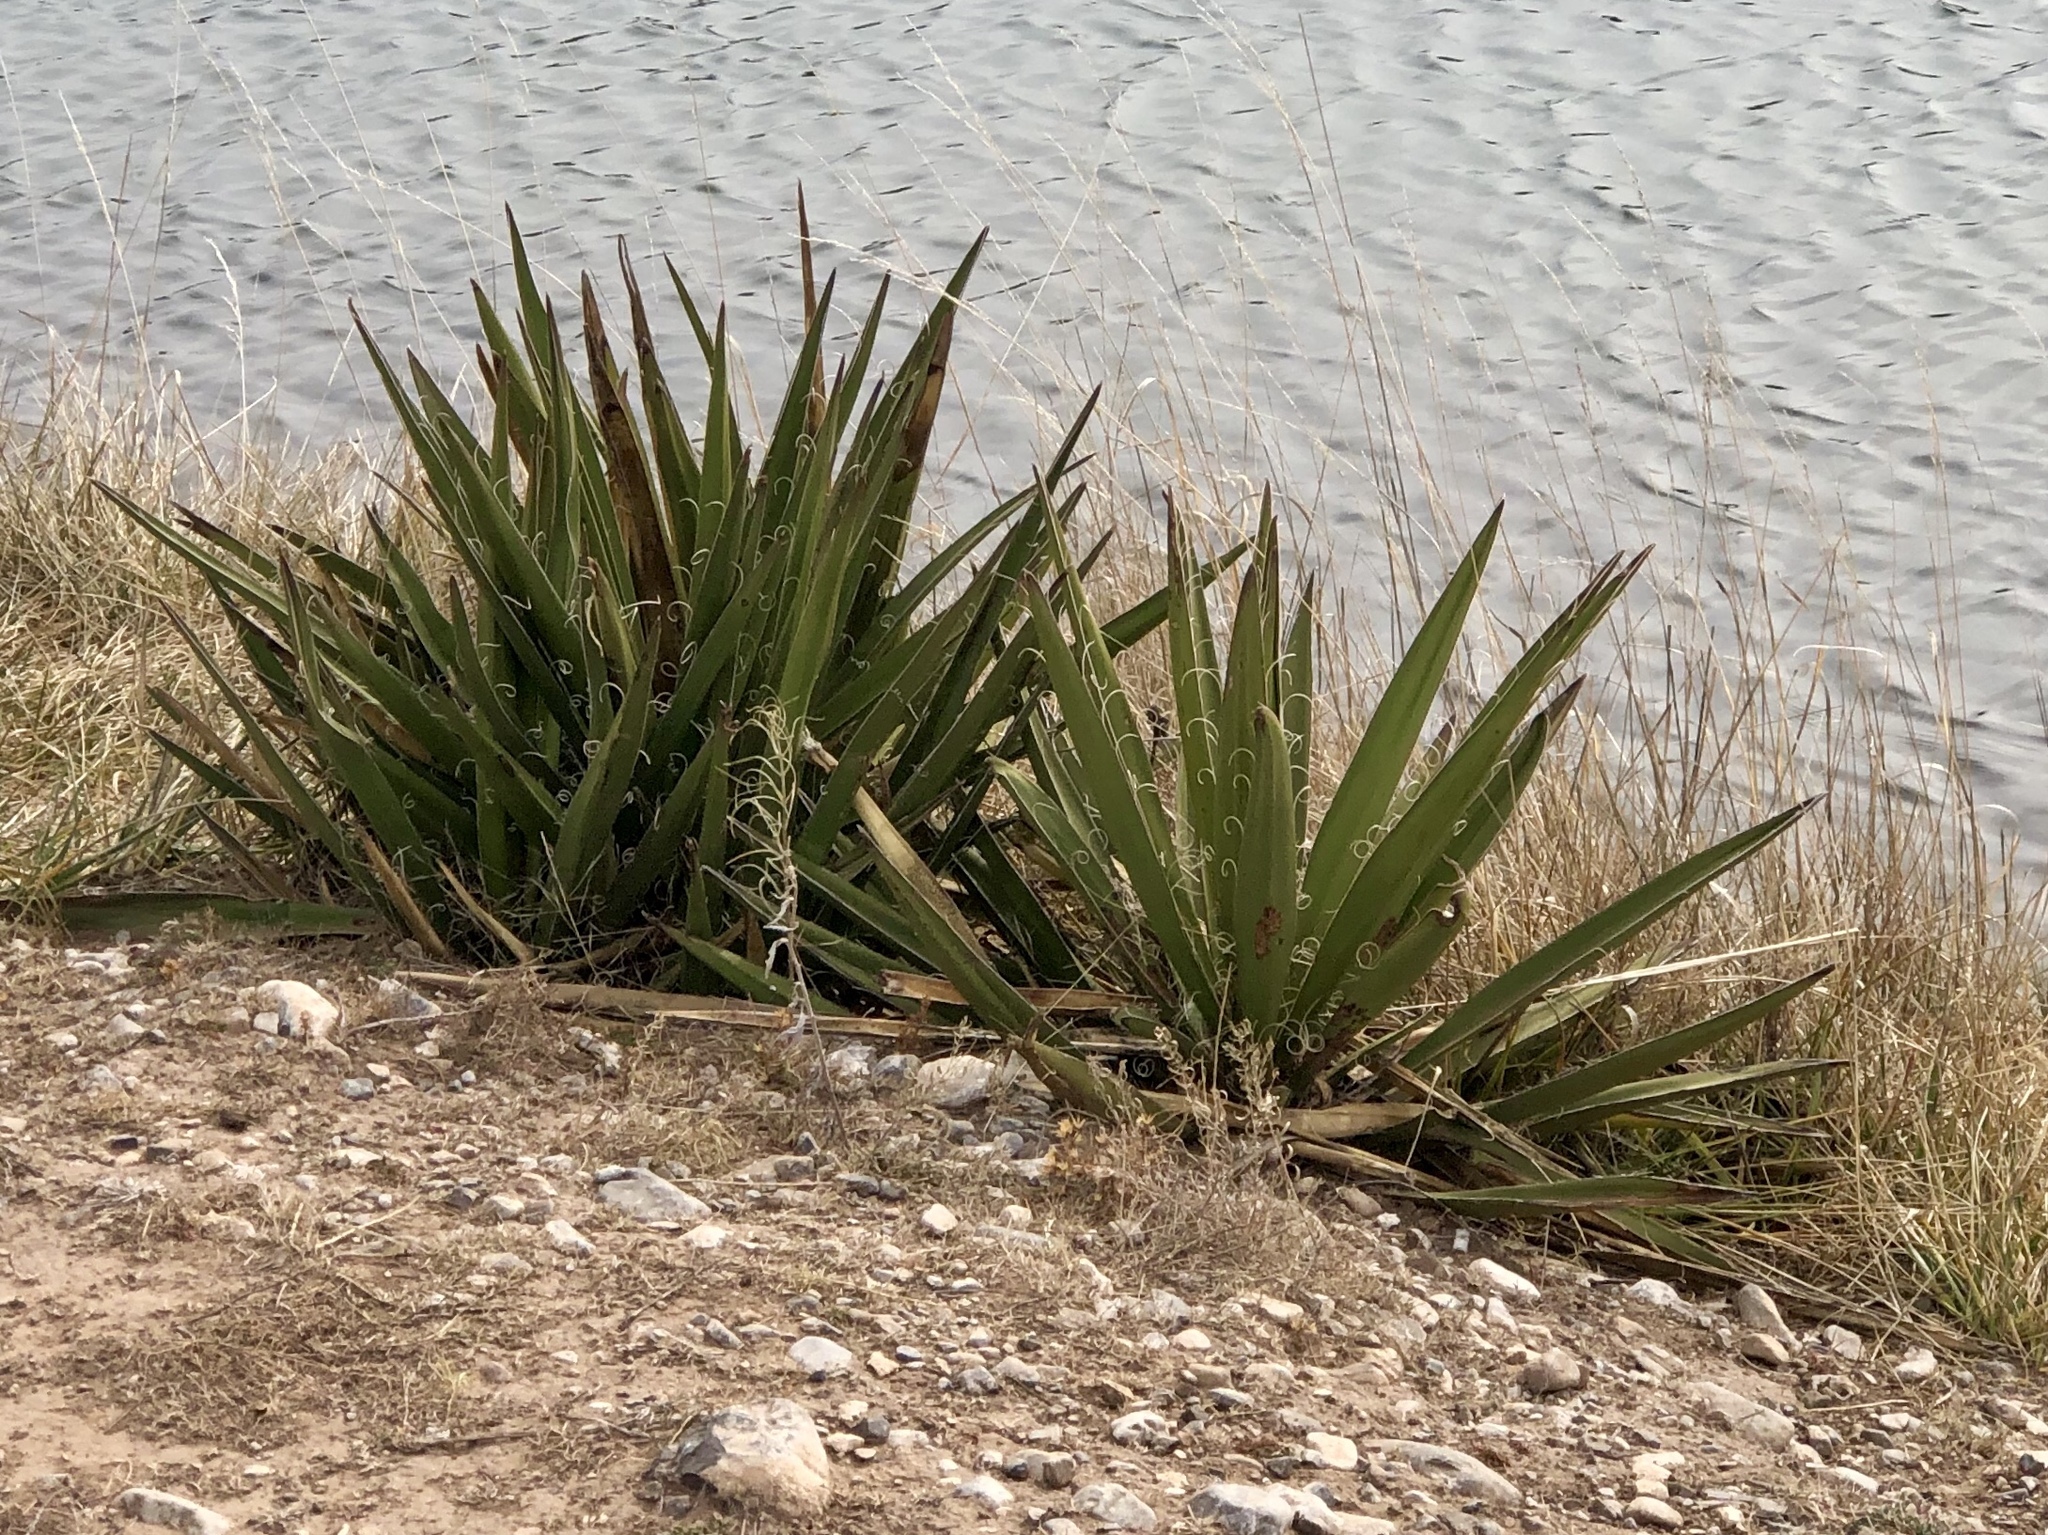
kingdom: Plantae
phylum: Tracheophyta
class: Liliopsida
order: Asparagales
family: Asparagaceae
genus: Yucca
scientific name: Yucca baccata
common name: Banana yucca
